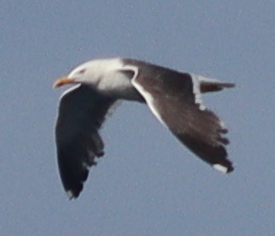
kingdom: Animalia
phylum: Chordata
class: Aves
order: Charadriiformes
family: Laridae
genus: Larus
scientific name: Larus fuscus
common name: Lesser black-backed gull
